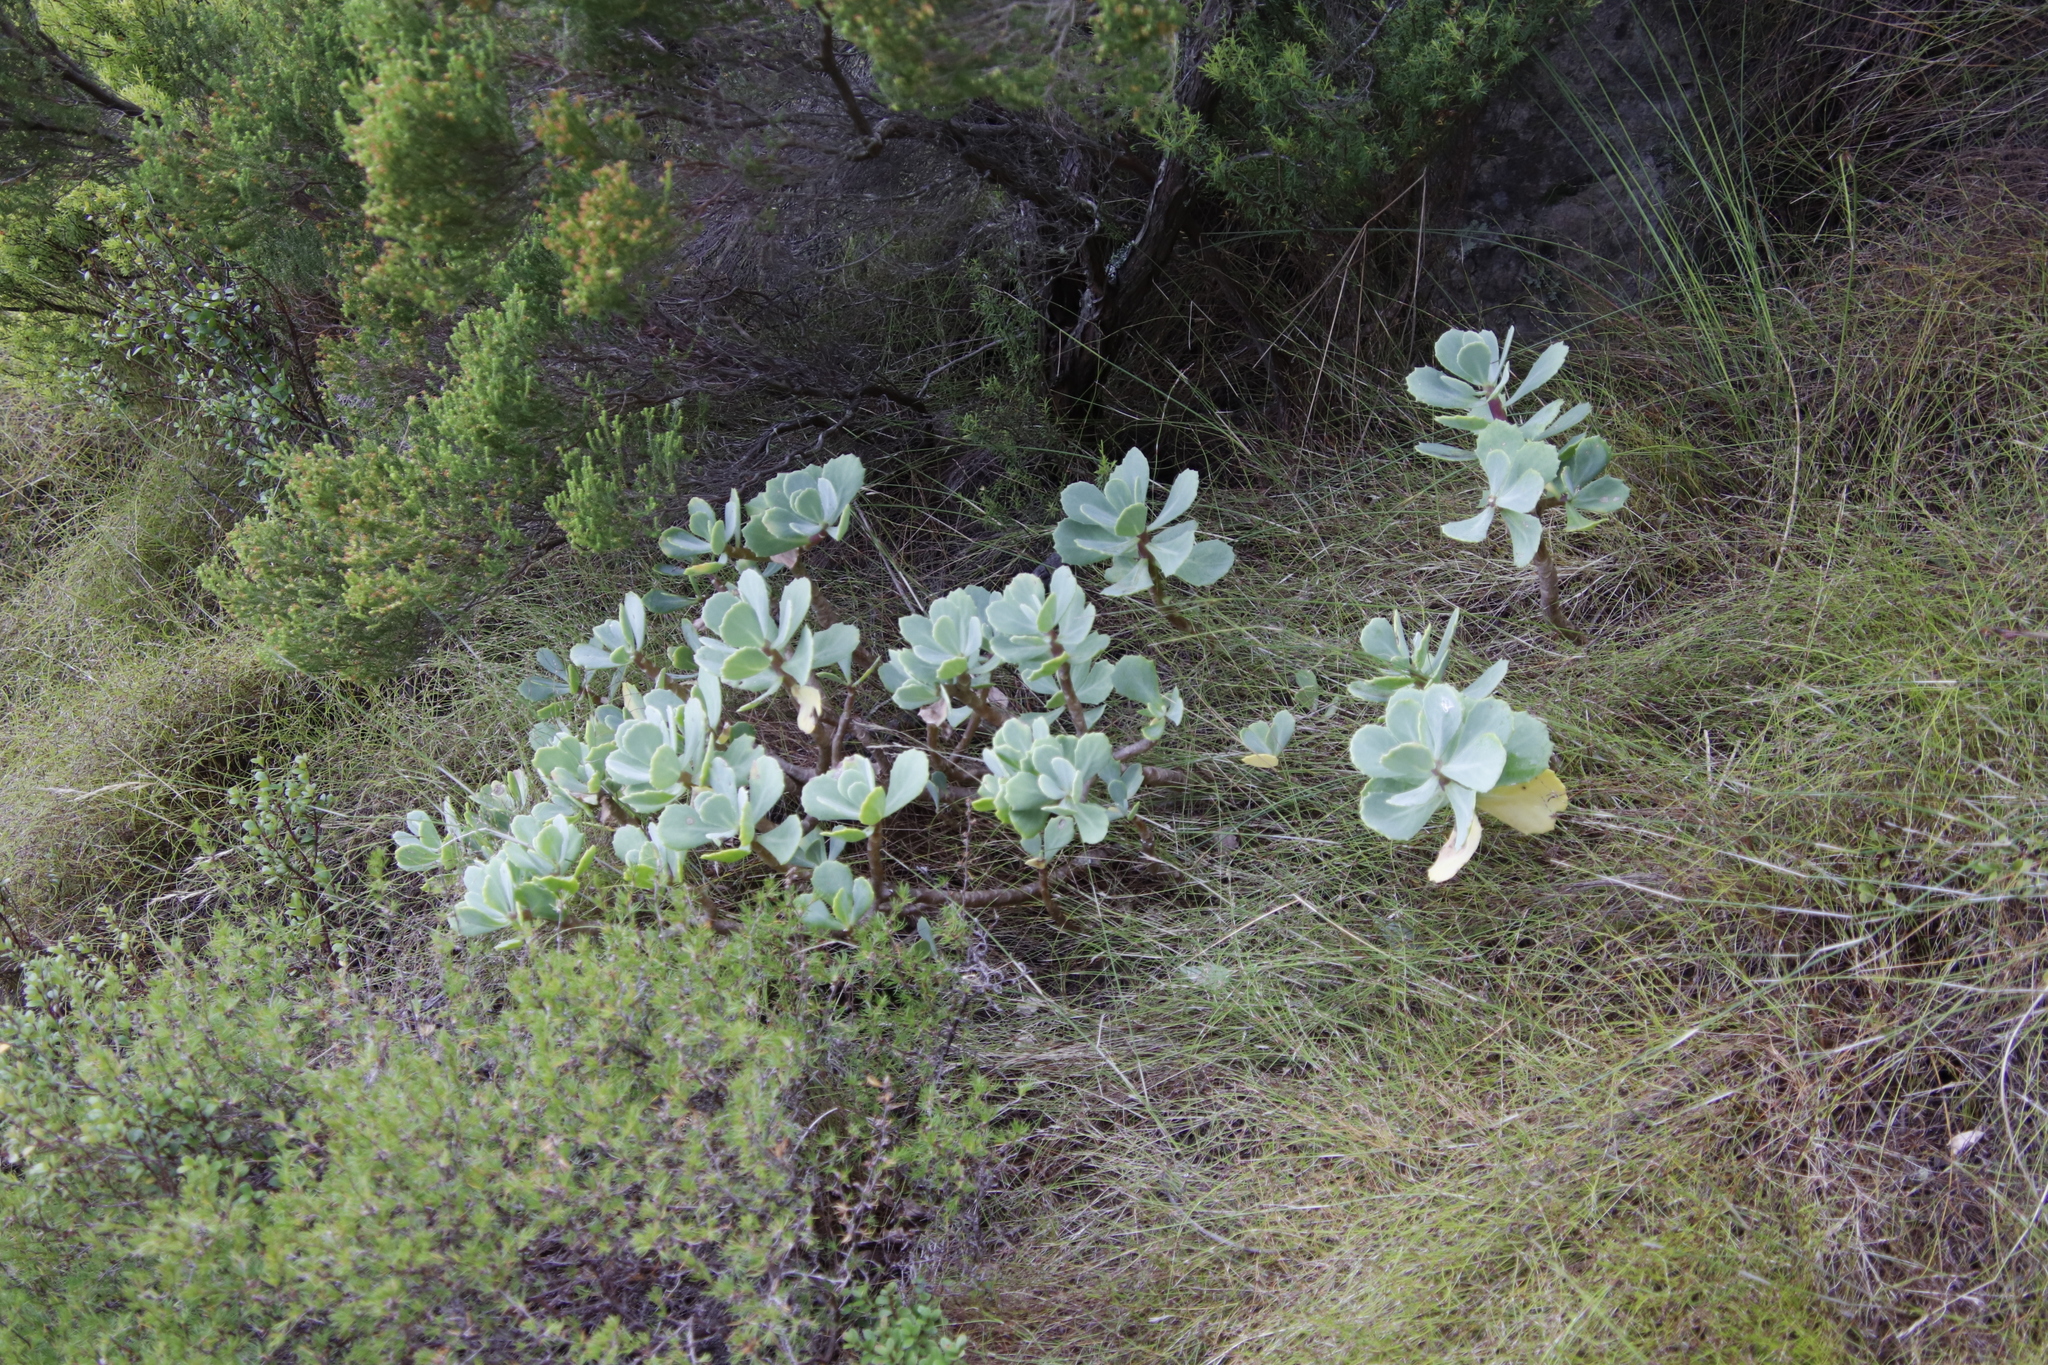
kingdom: Plantae
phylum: Tracheophyta
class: Magnoliopsida
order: Saxifragales
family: Crassulaceae
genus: Cotyledon
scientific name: Cotyledon orbiculata
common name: Pig's ear
